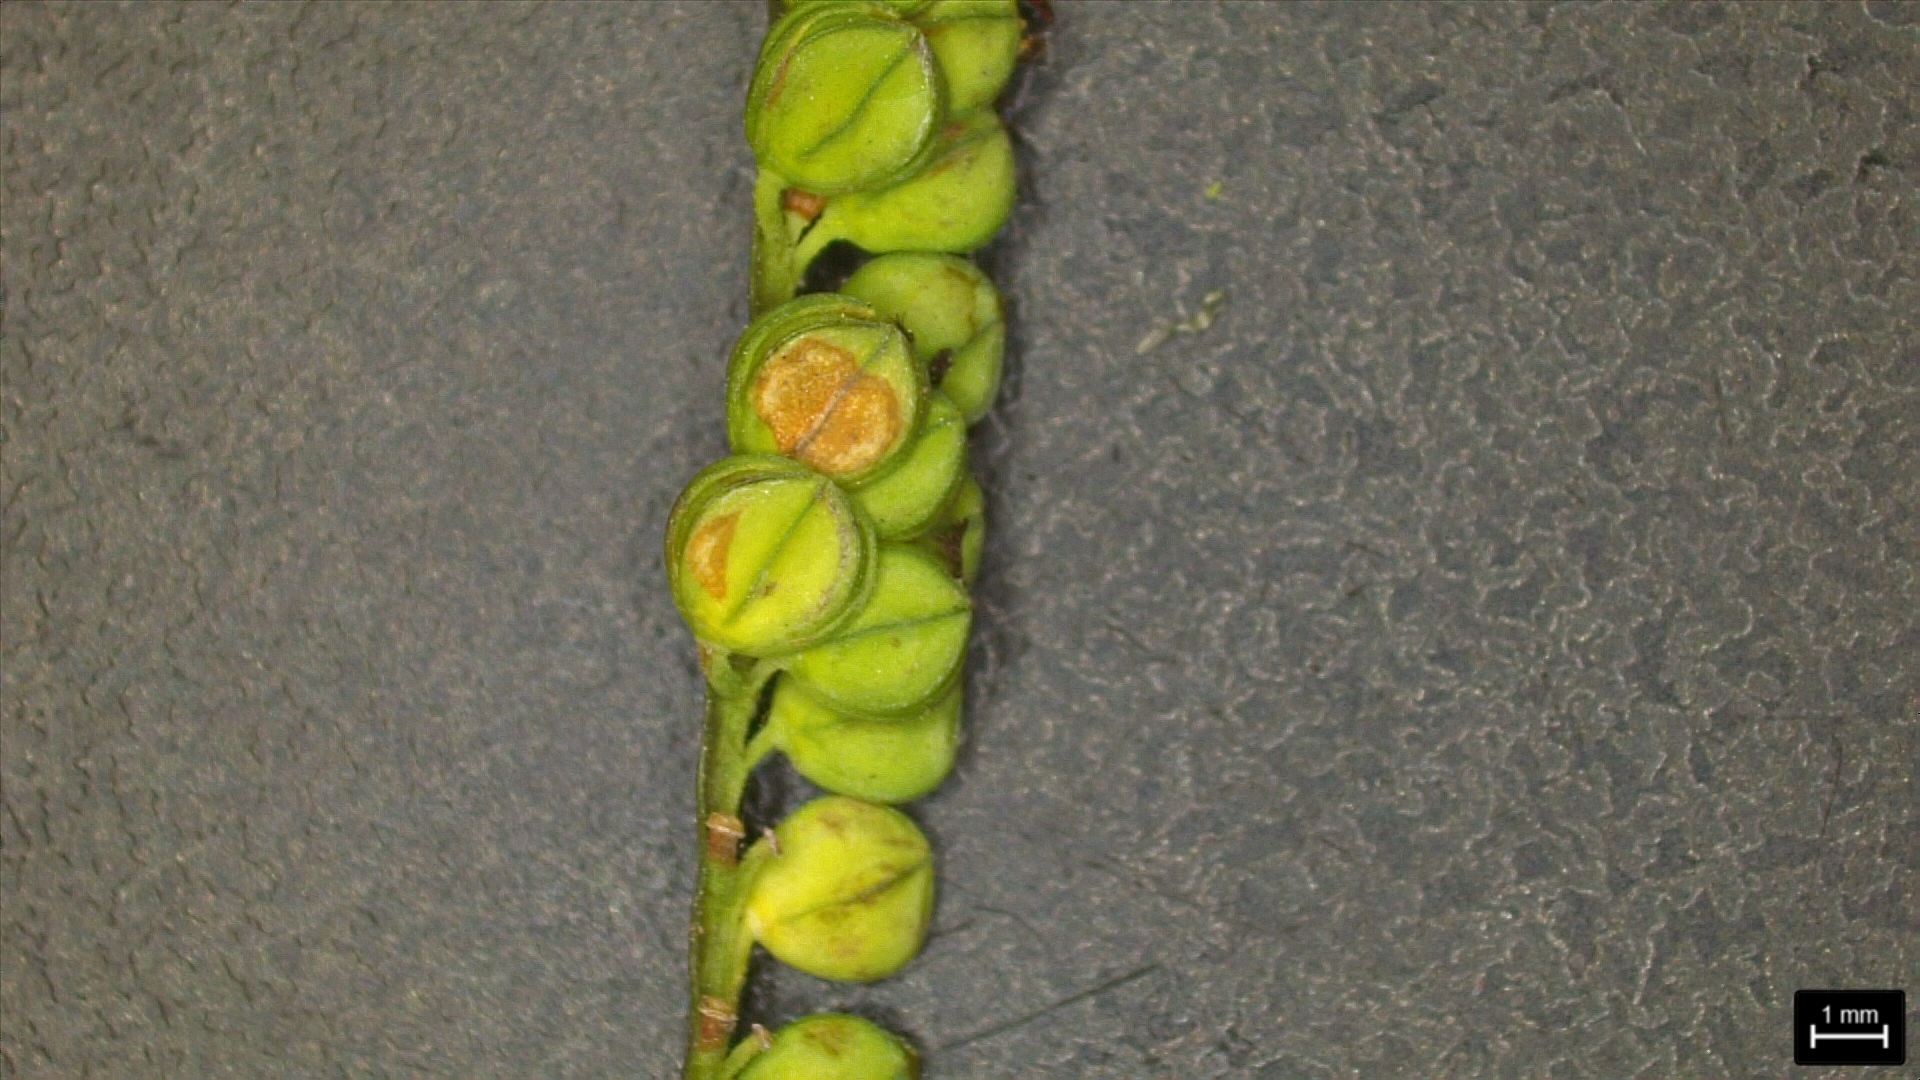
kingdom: Plantae
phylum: Tracheophyta
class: Liliopsida
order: Poales
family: Poaceae
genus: Paspalum
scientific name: Paspalum praecox
